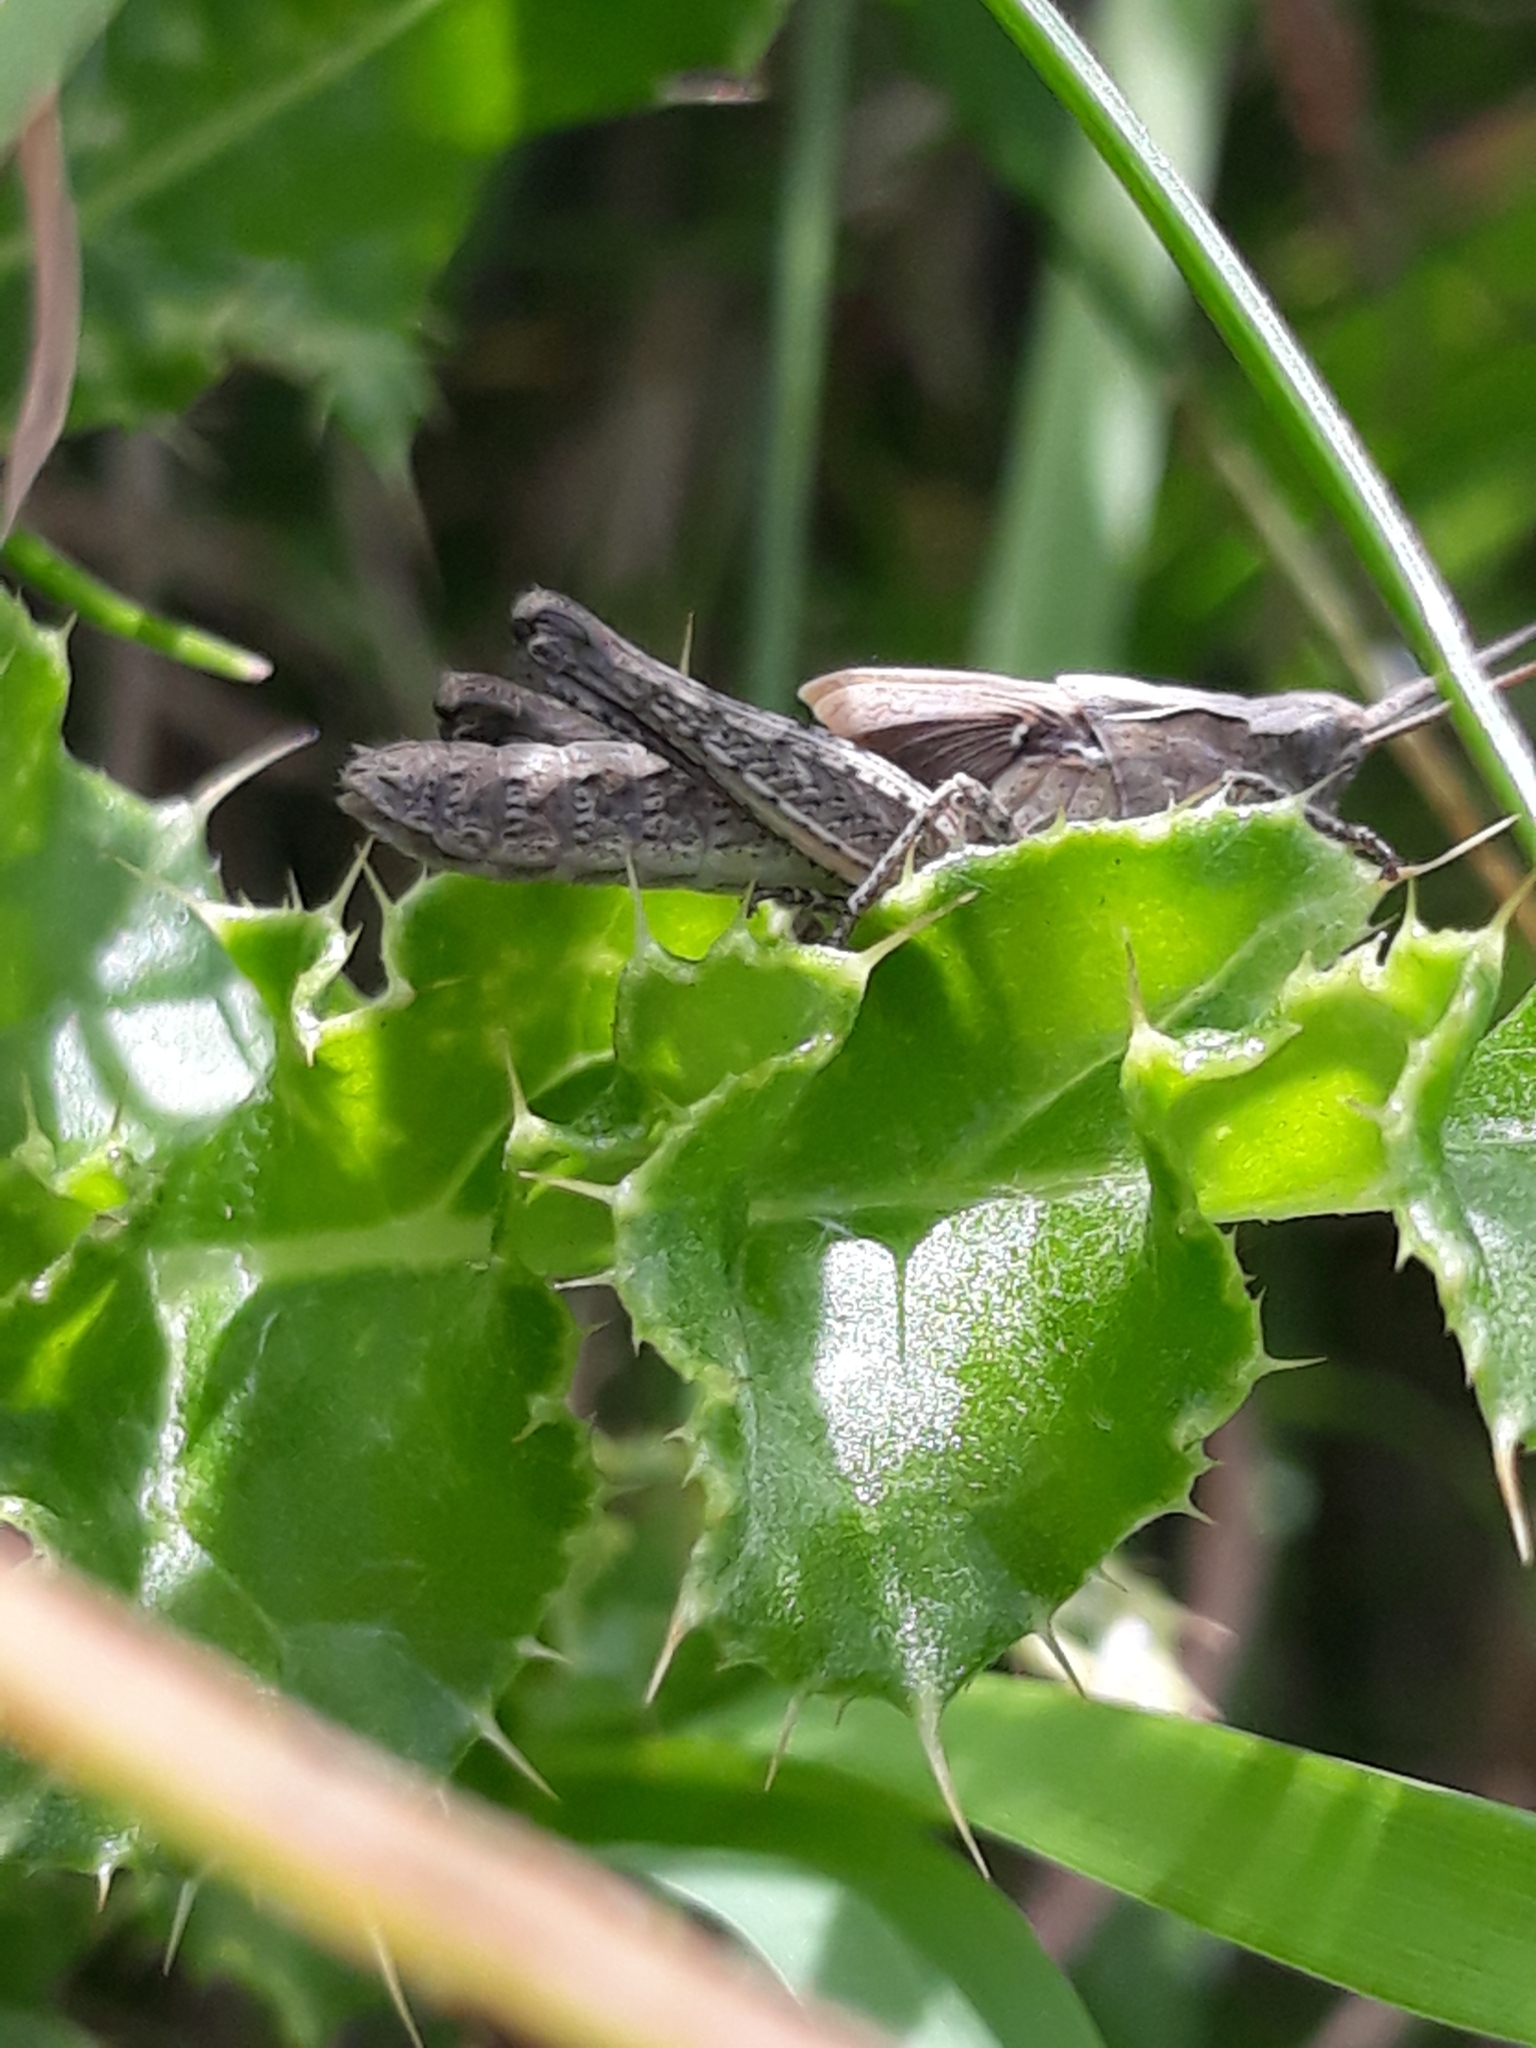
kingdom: Animalia
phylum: Arthropoda
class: Insecta
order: Orthoptera
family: Acrididae
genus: Chorthippus
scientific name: Chorthippus brunneus
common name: Field grasshopper
